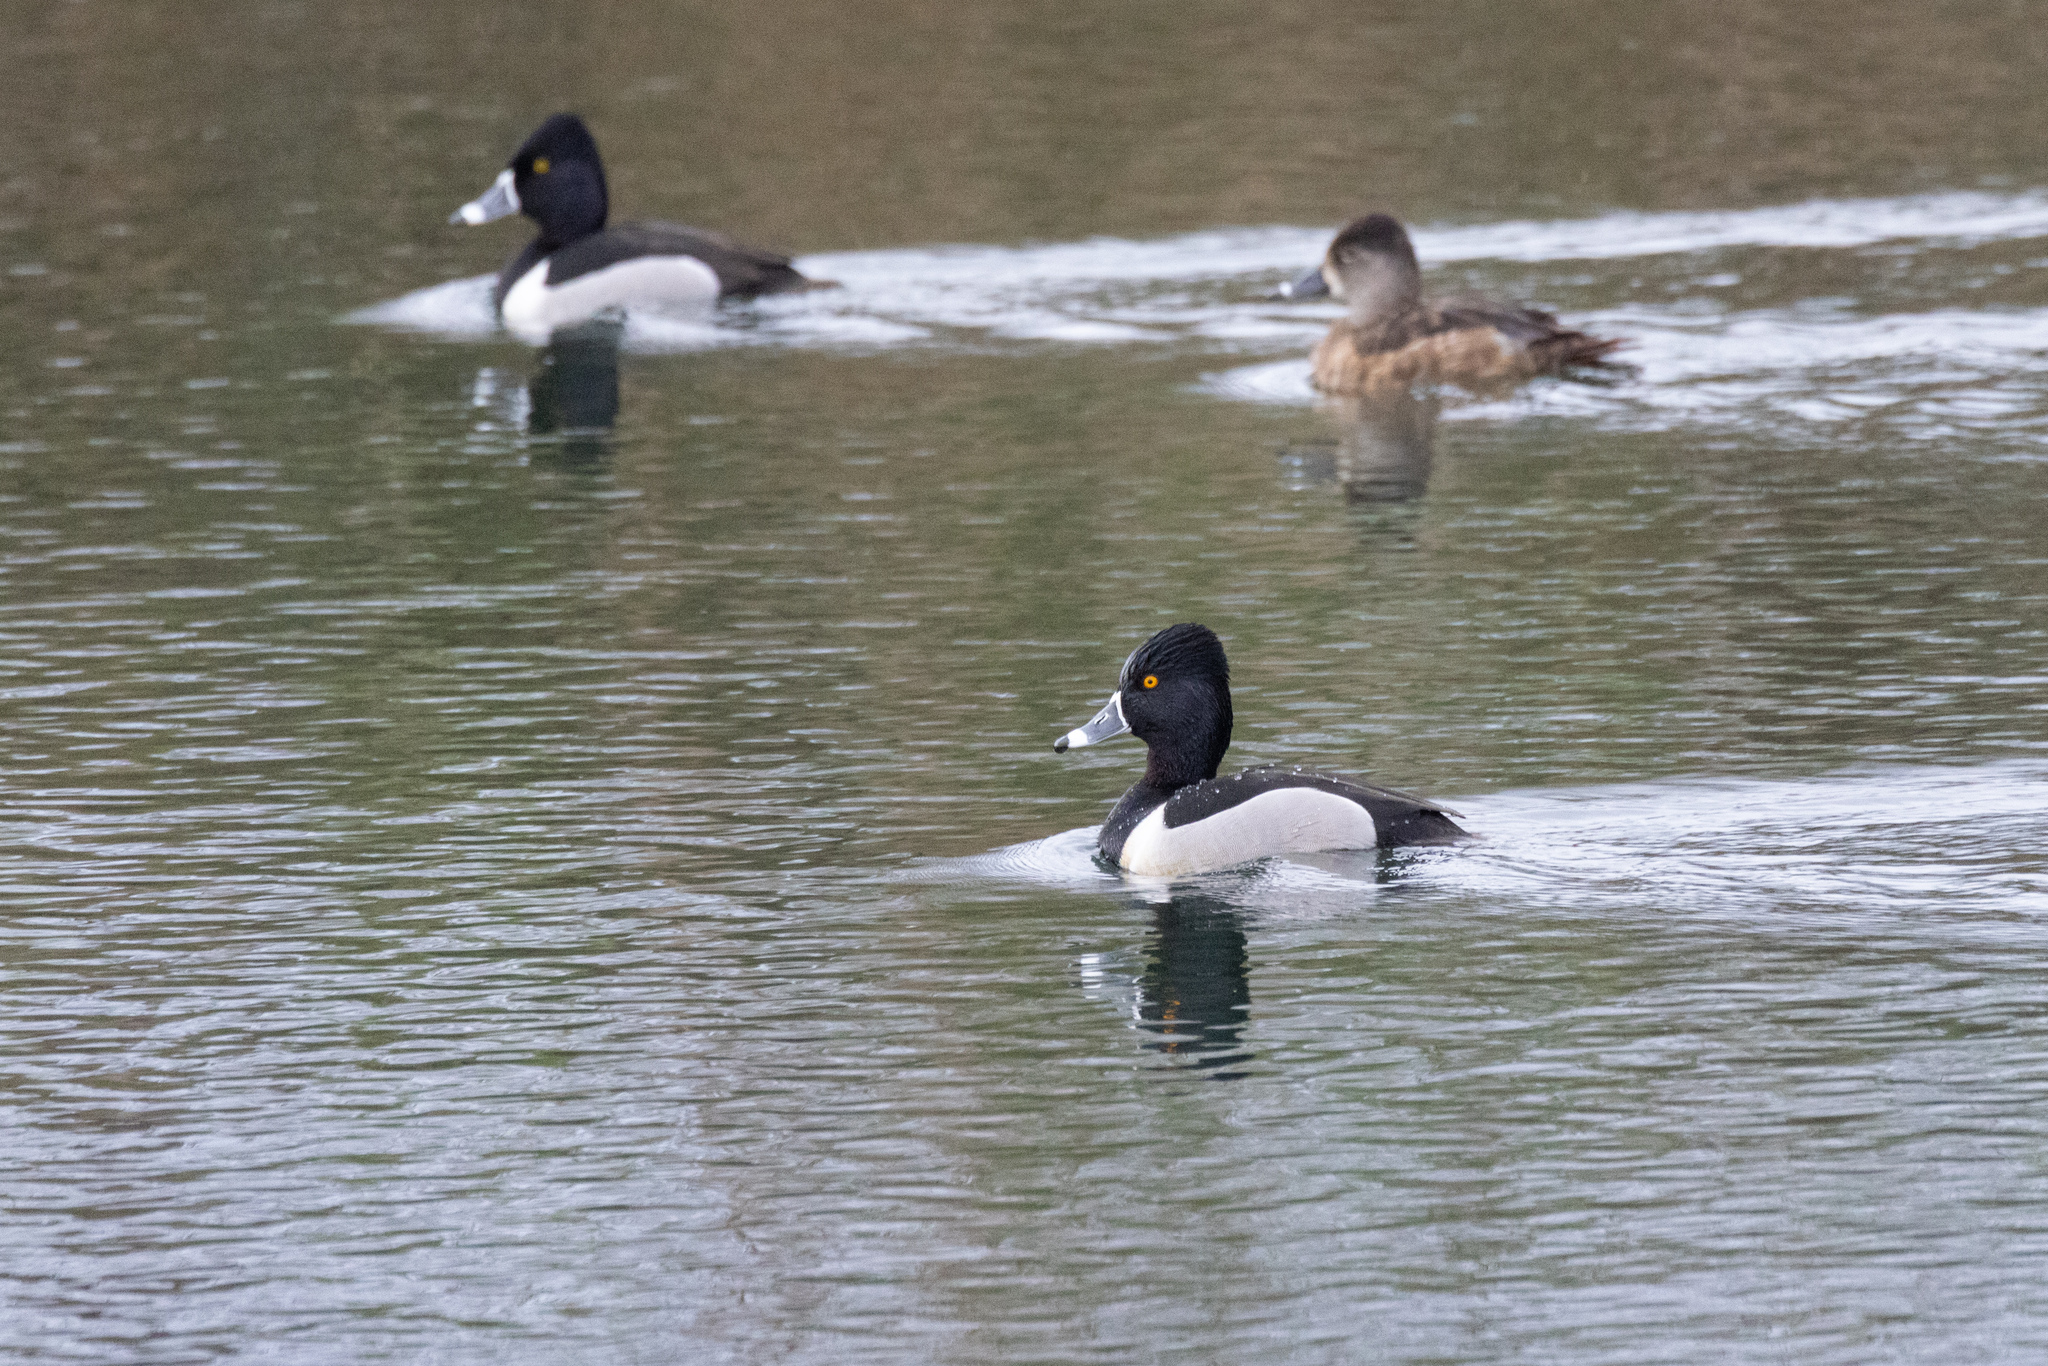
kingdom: Animalia
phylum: Chordata
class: Aves
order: Anseriformes
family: Anatidae
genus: Aythya
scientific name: Aythya collaris
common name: Ring-necked duck
